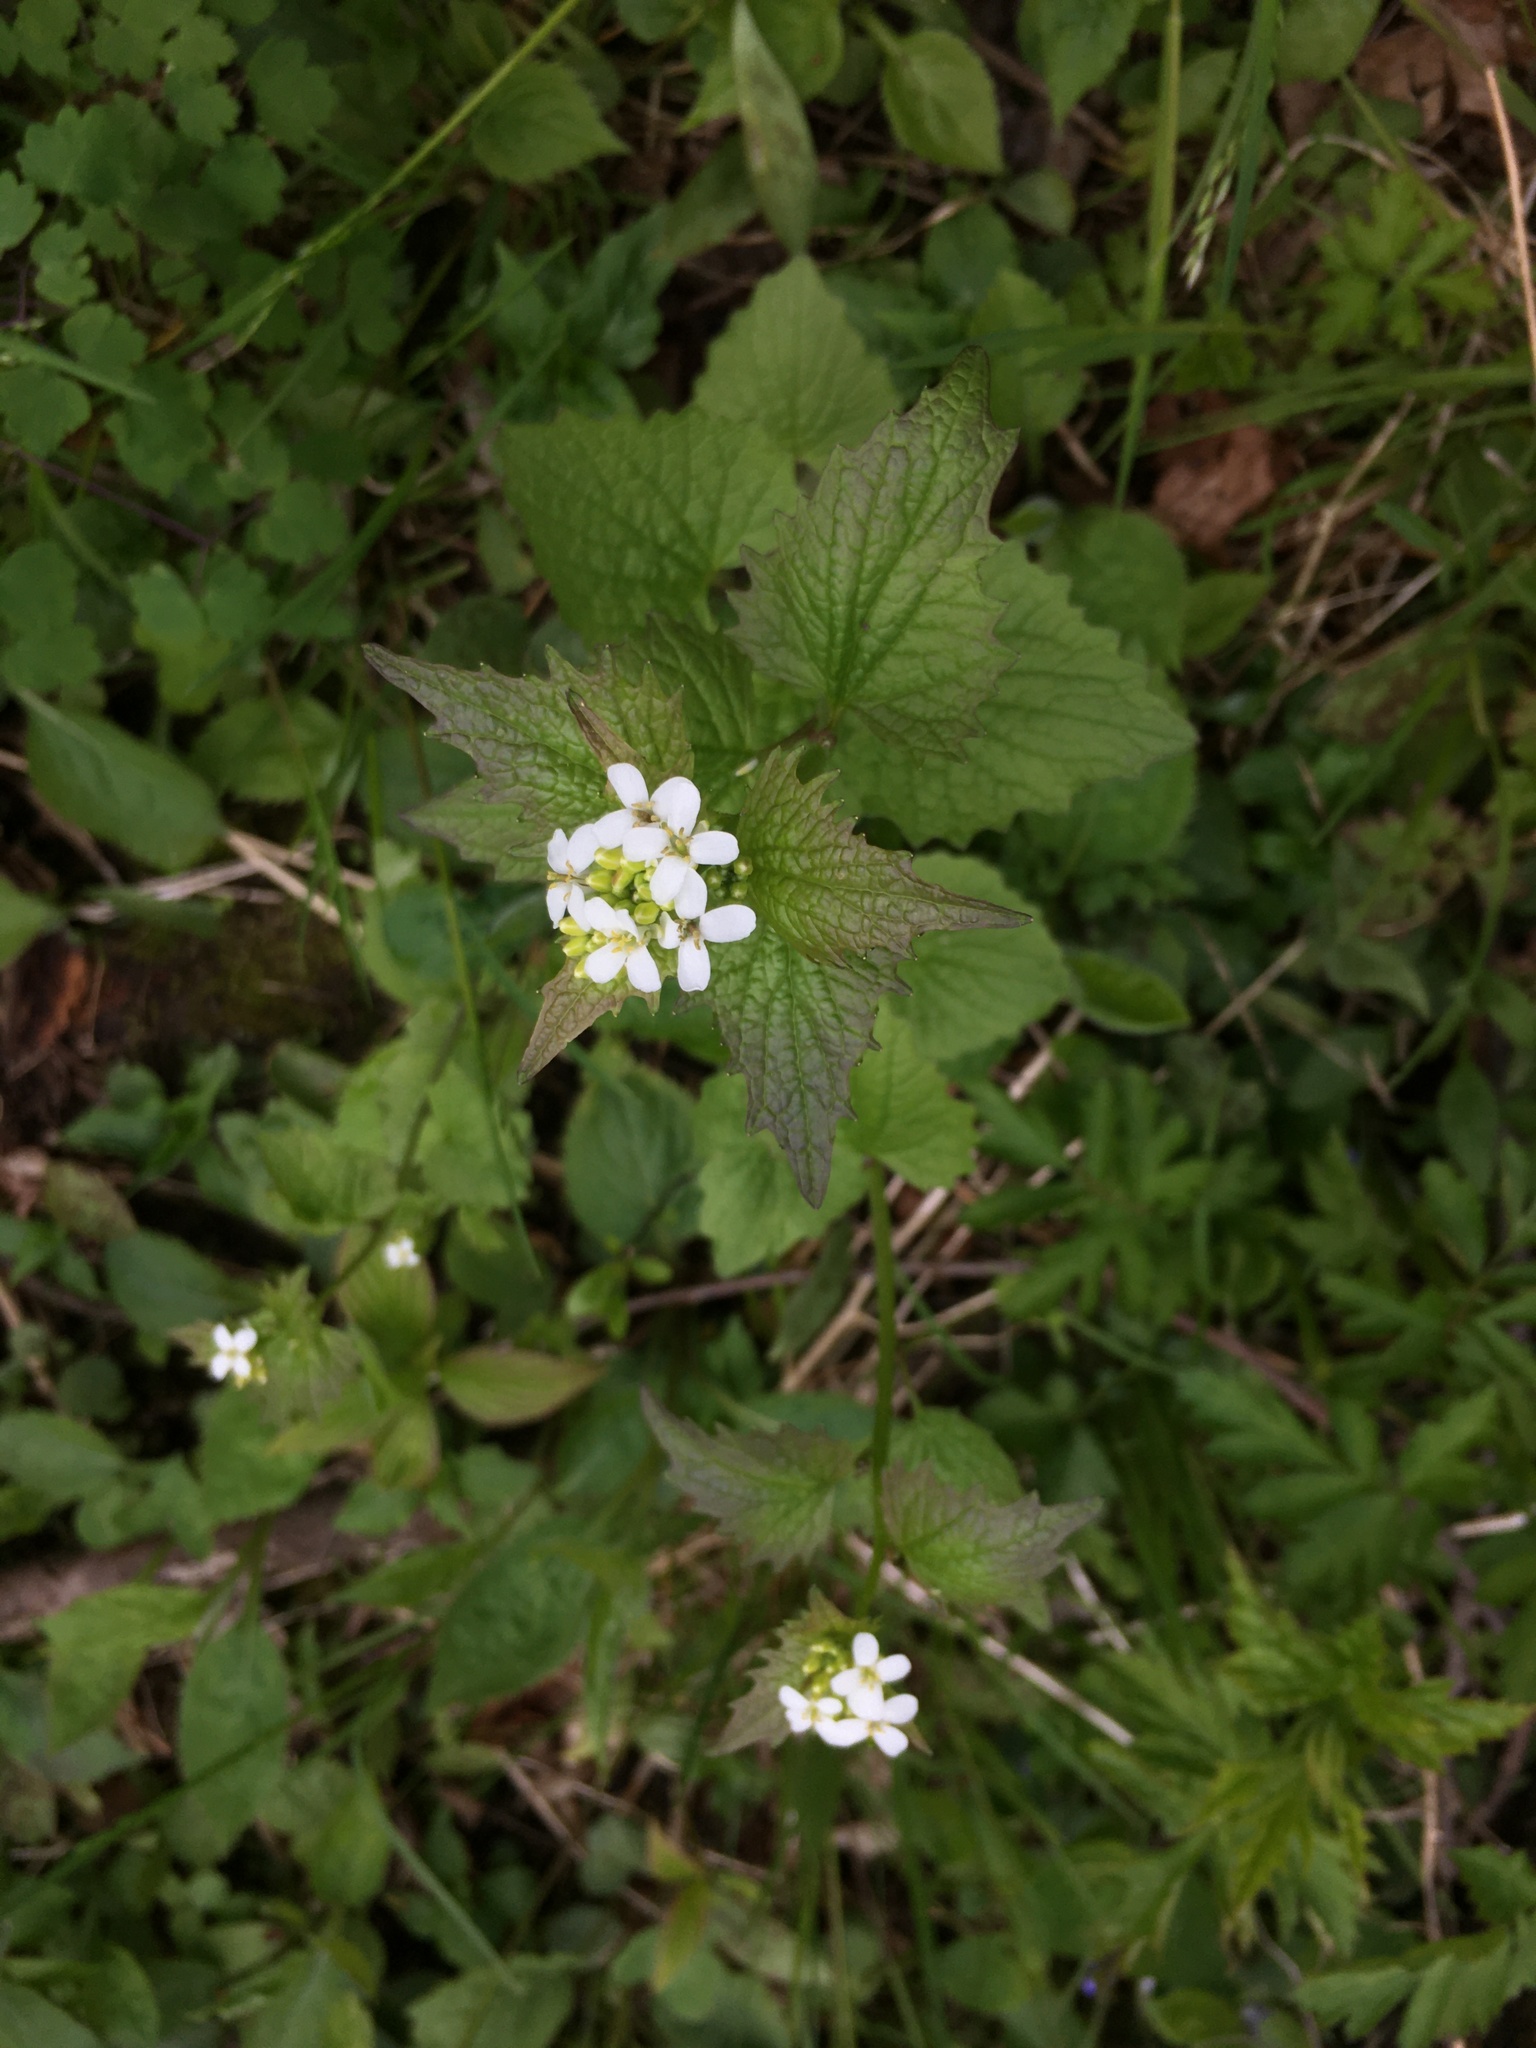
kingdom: Plantae
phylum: Tracheophyta
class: Magnoliopsida
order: Brassicales
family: Brassicaceae
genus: Alliaria
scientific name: Alliaria petiolata
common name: Garlic mustard
